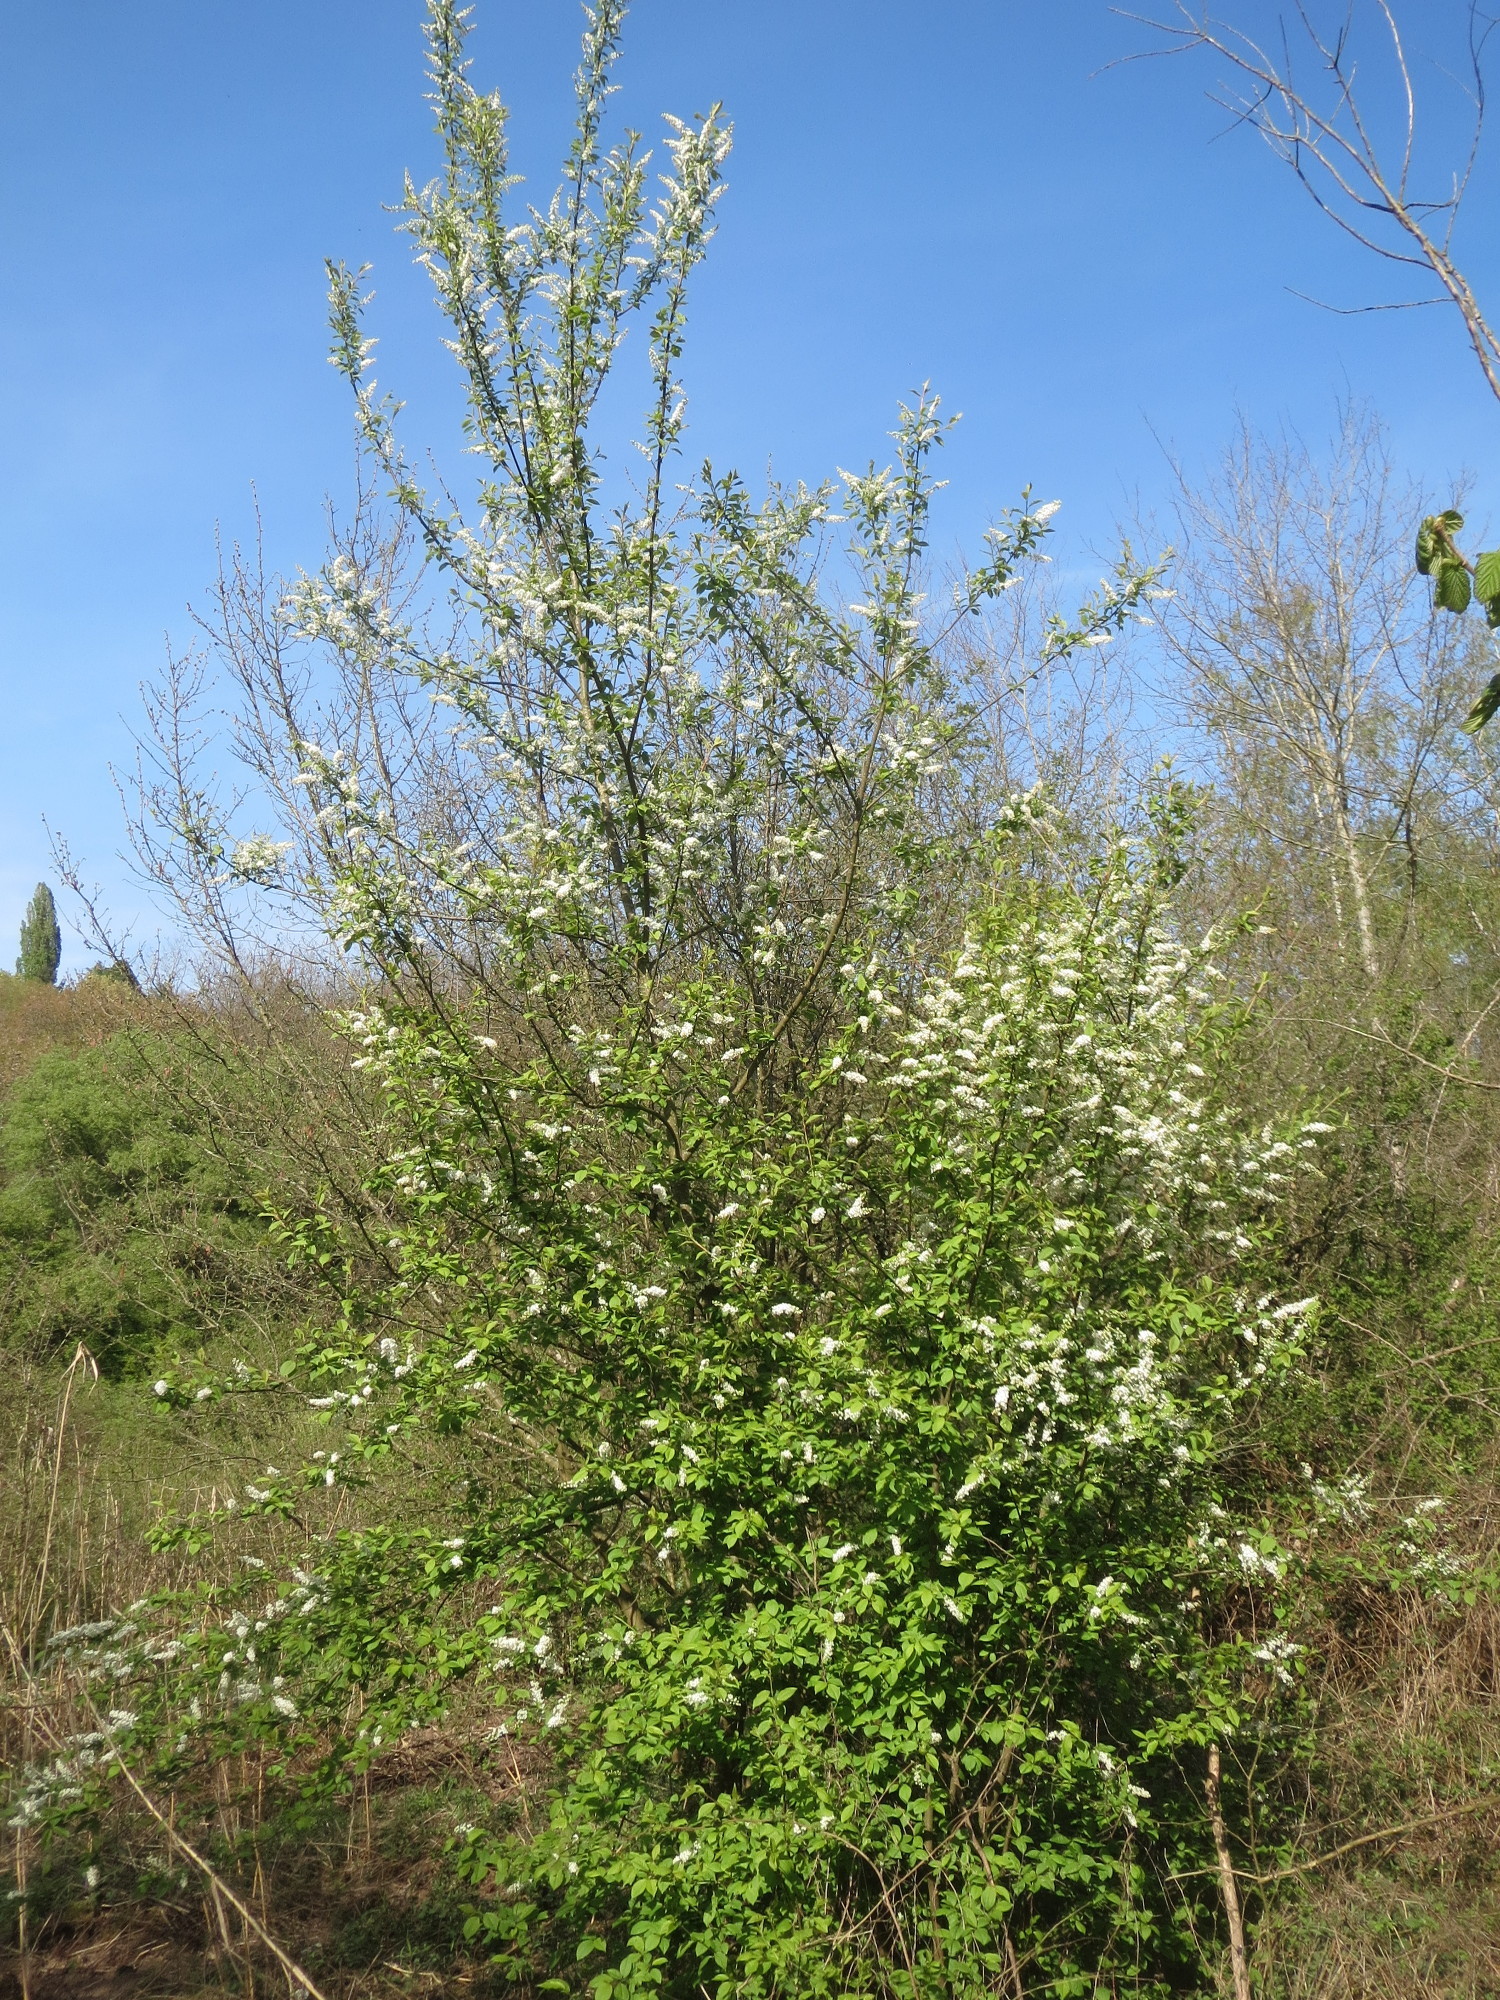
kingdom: Plantae
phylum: Tracheophyta
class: Magnoliopsida
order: Rosales
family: Rosaceae
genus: Prunus
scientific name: Prunus padus
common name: Bird cherry
